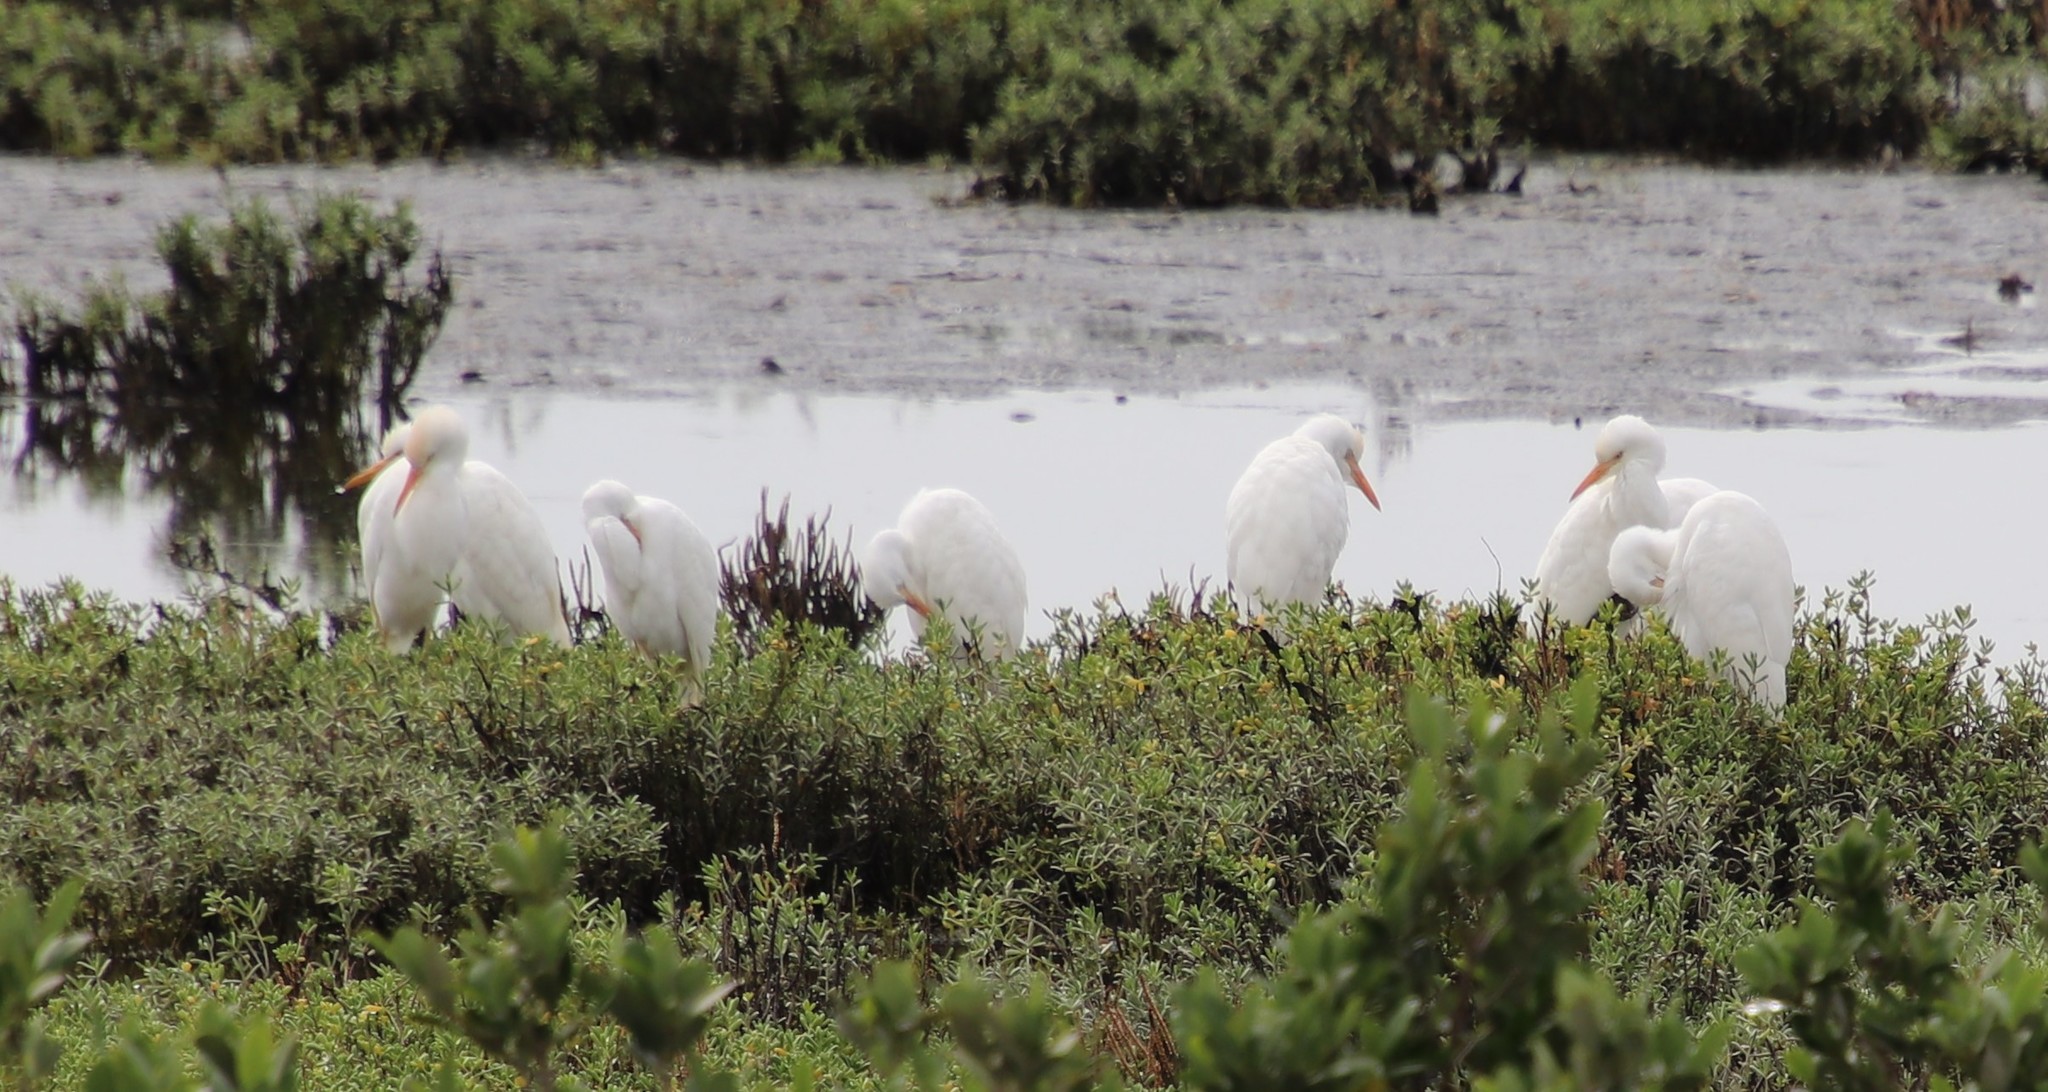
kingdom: Animalia
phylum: Chordata
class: Aves
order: Pelecaniformes
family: Ardeidae
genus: Bubulcus
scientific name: Bubulcus ibis
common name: Cattle egret
